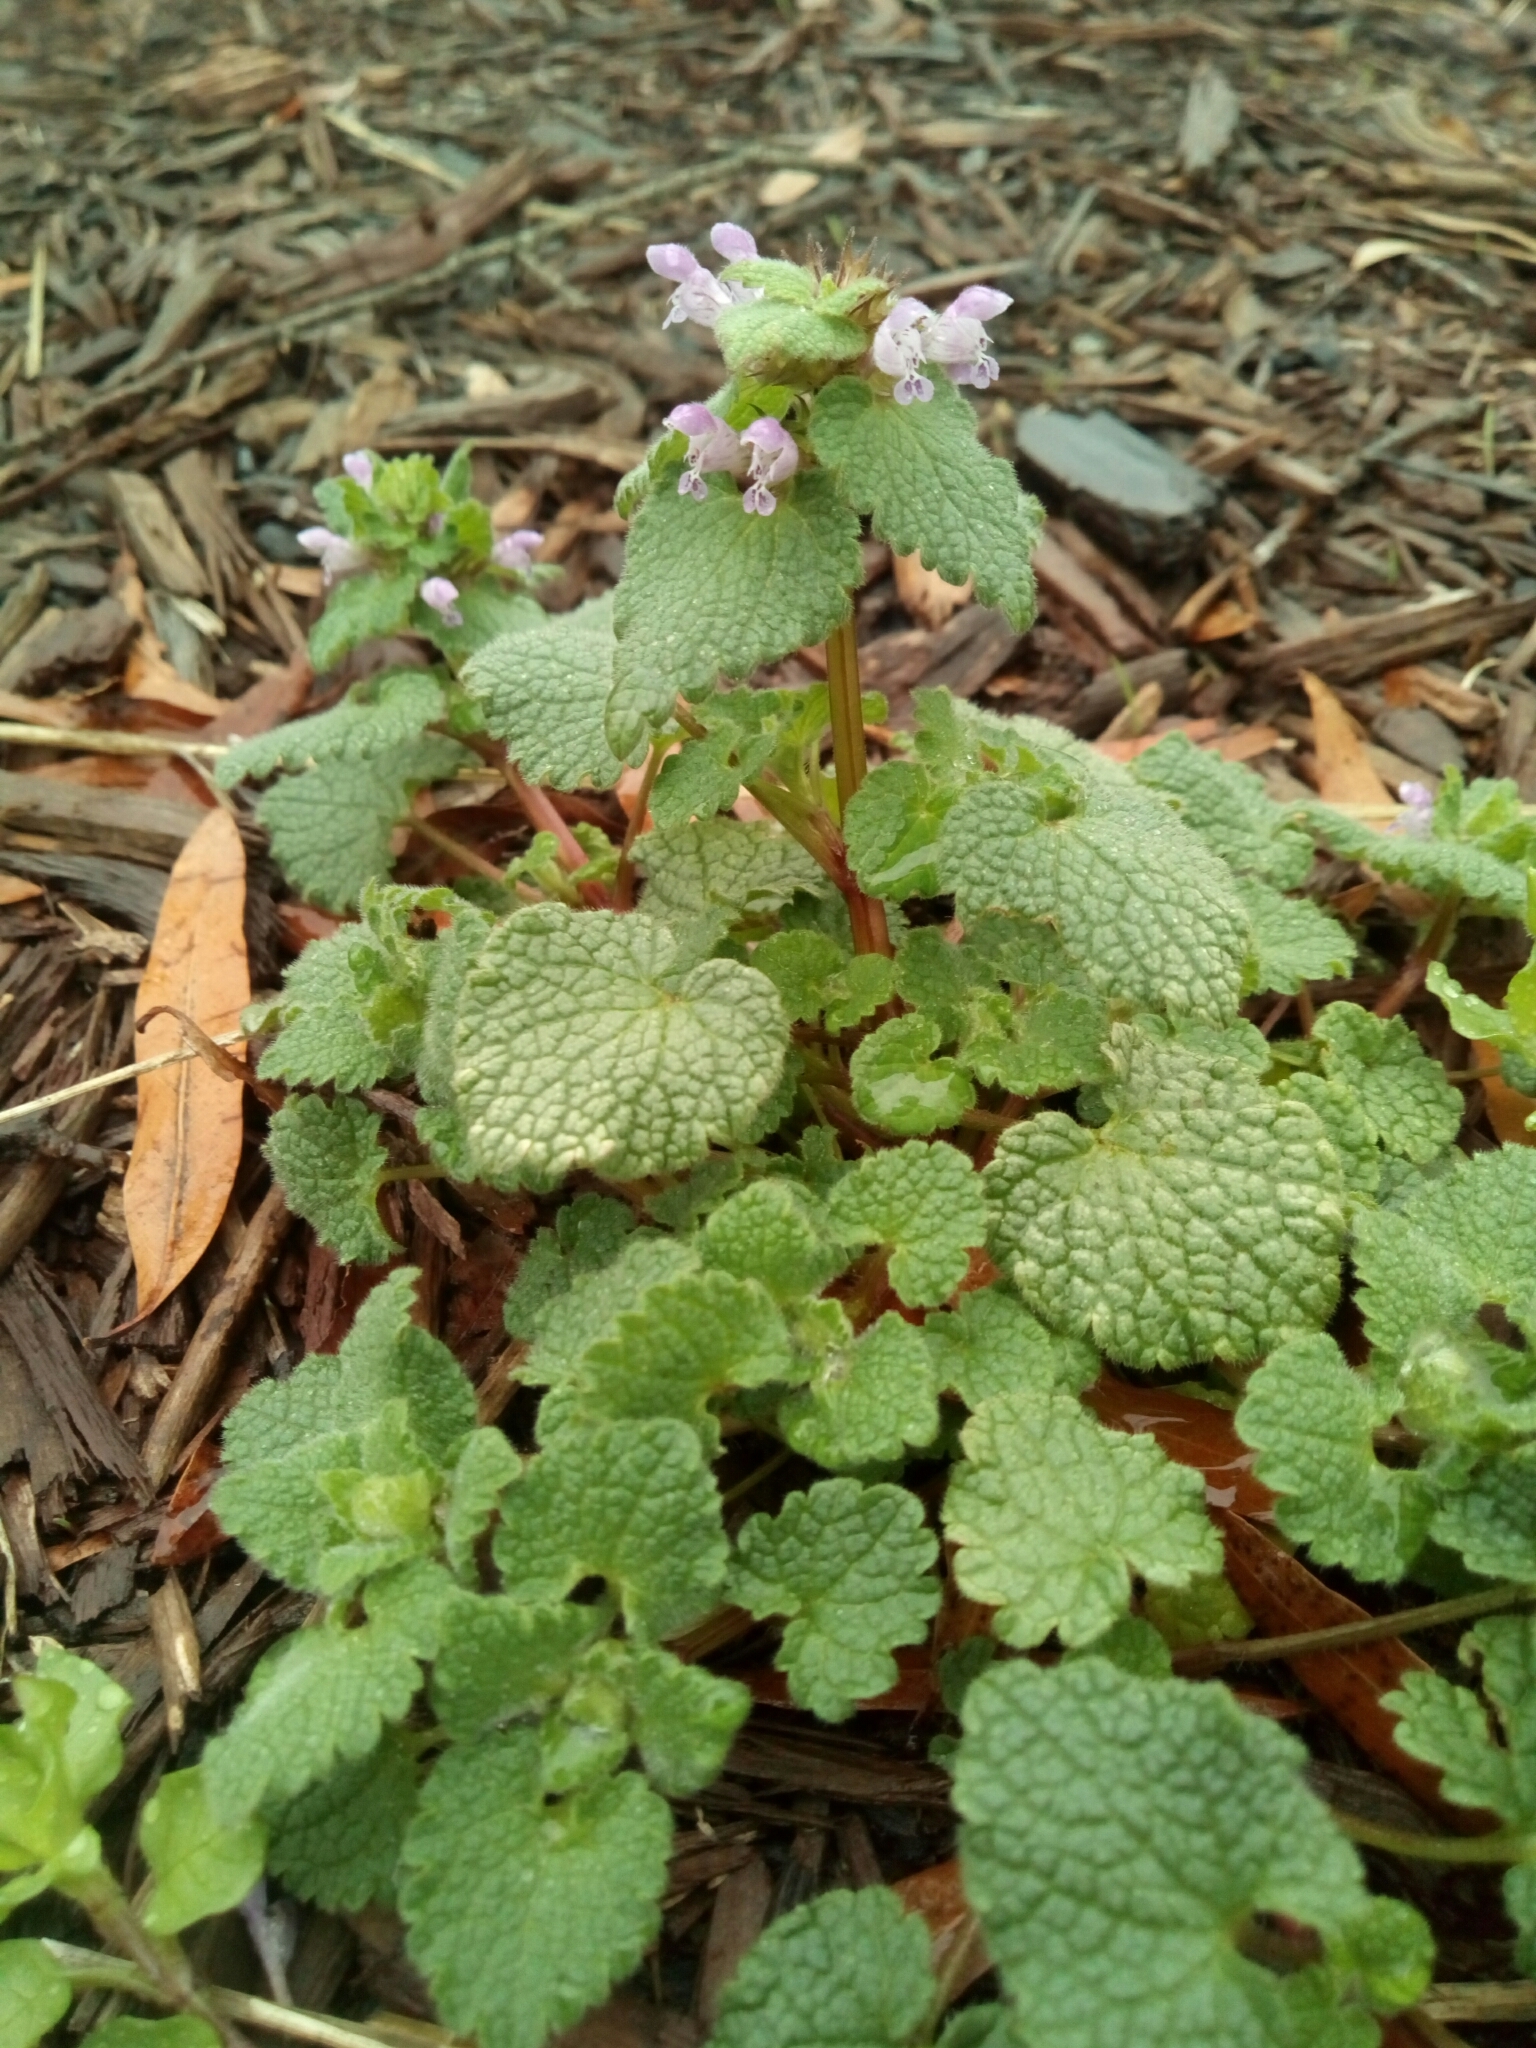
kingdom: Plantae
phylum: Tracheophyta
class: Magnoliopsida
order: Lamiales
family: Lamiaceae
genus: Lamium
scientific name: Lamium purpureum
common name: Red dead-nettle
